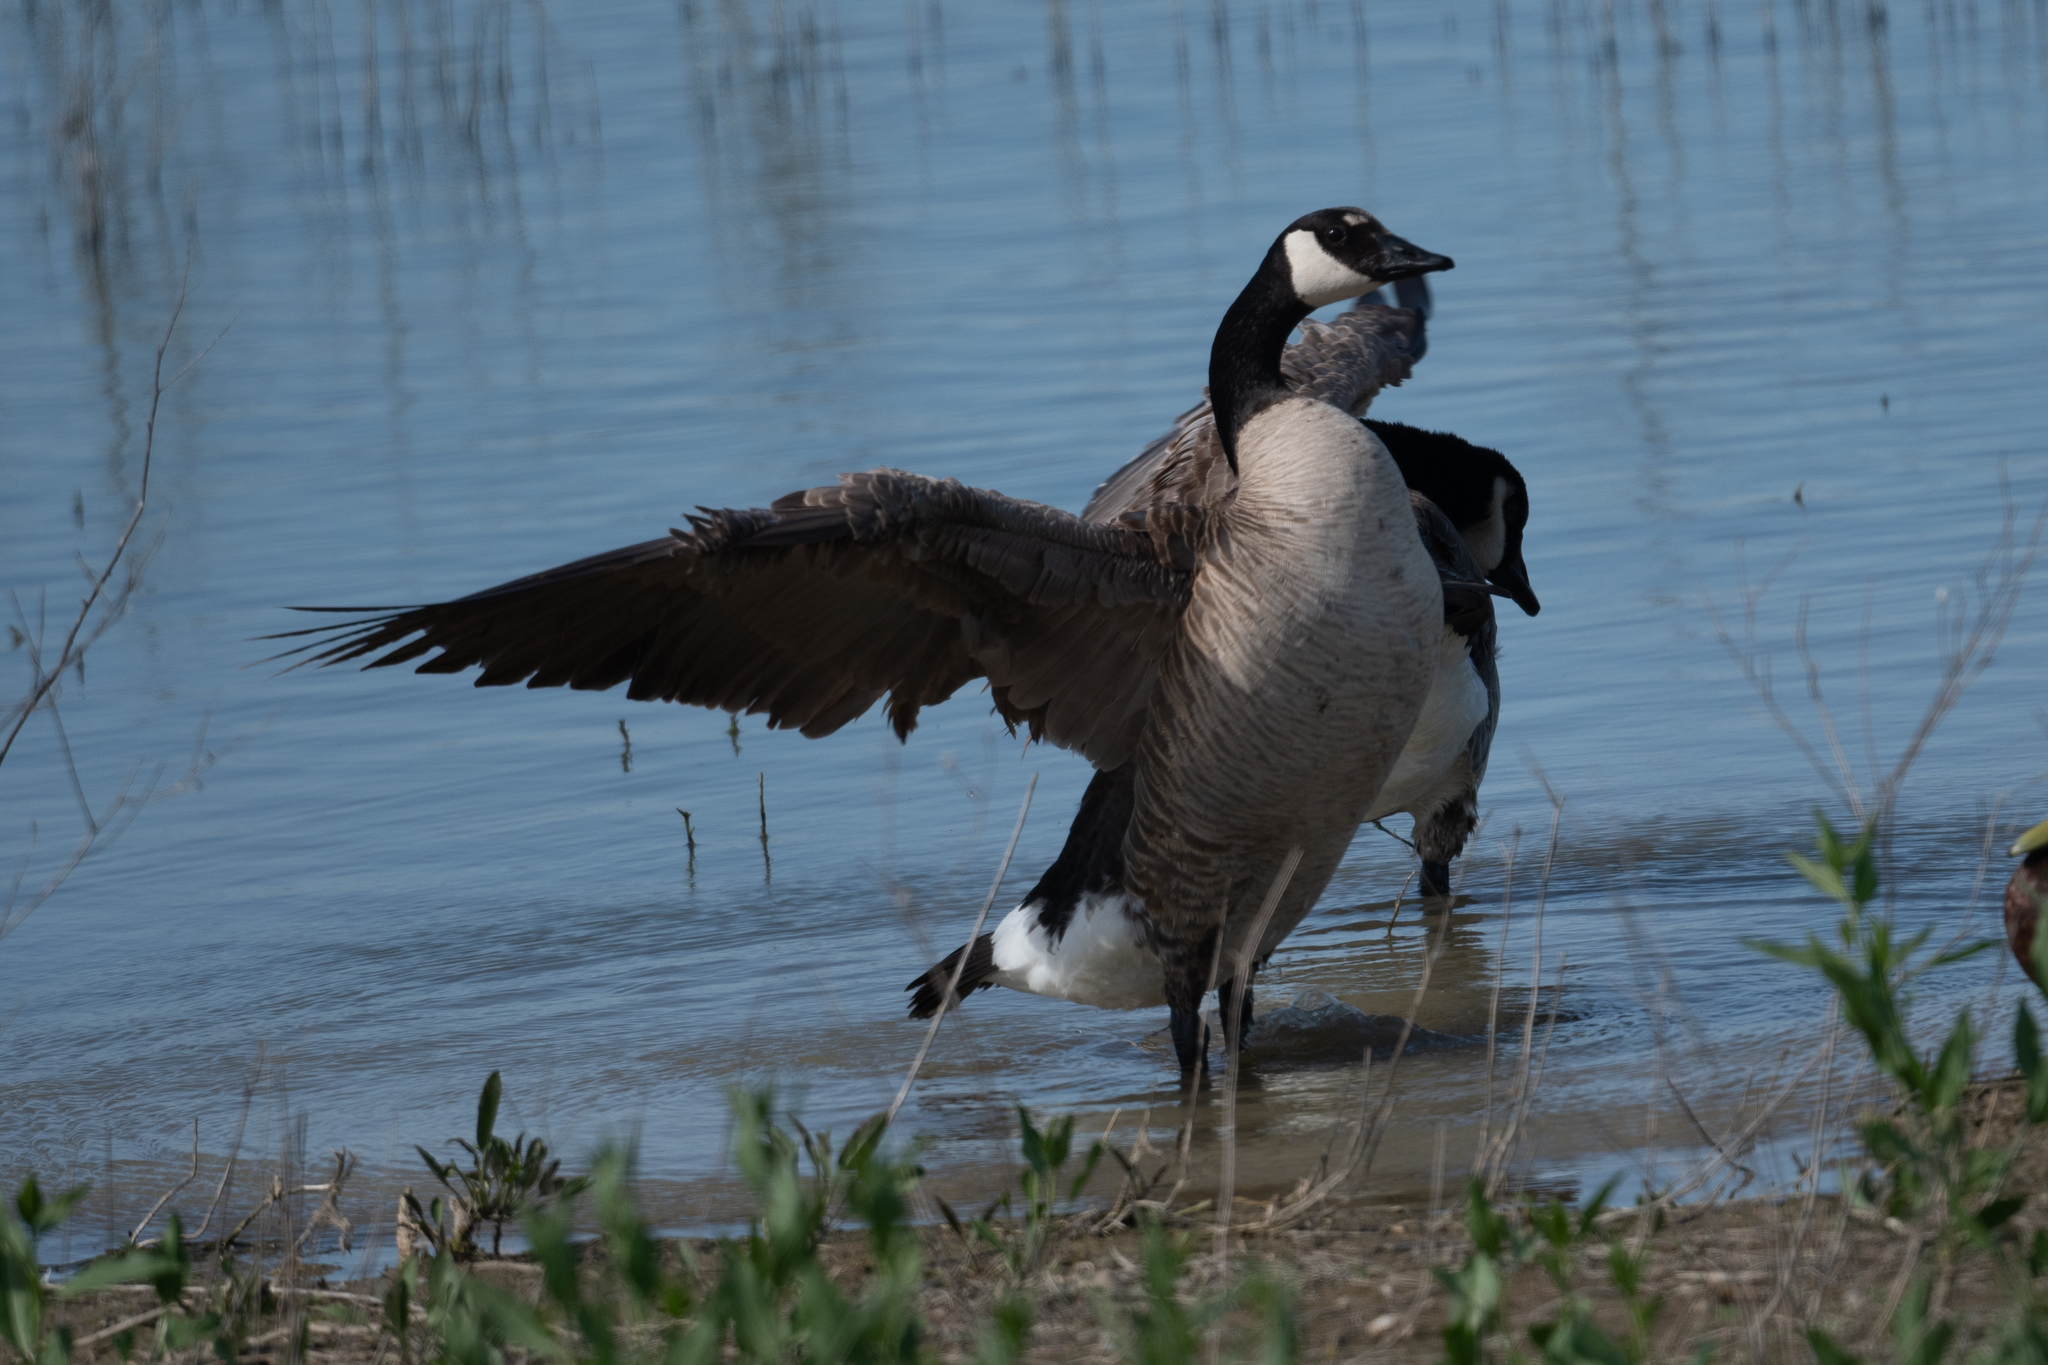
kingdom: Animalia
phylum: Chordata
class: Aves
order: Anseriformes
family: Anatidae
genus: Branta
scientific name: Branta canadensis
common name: Canada goose
